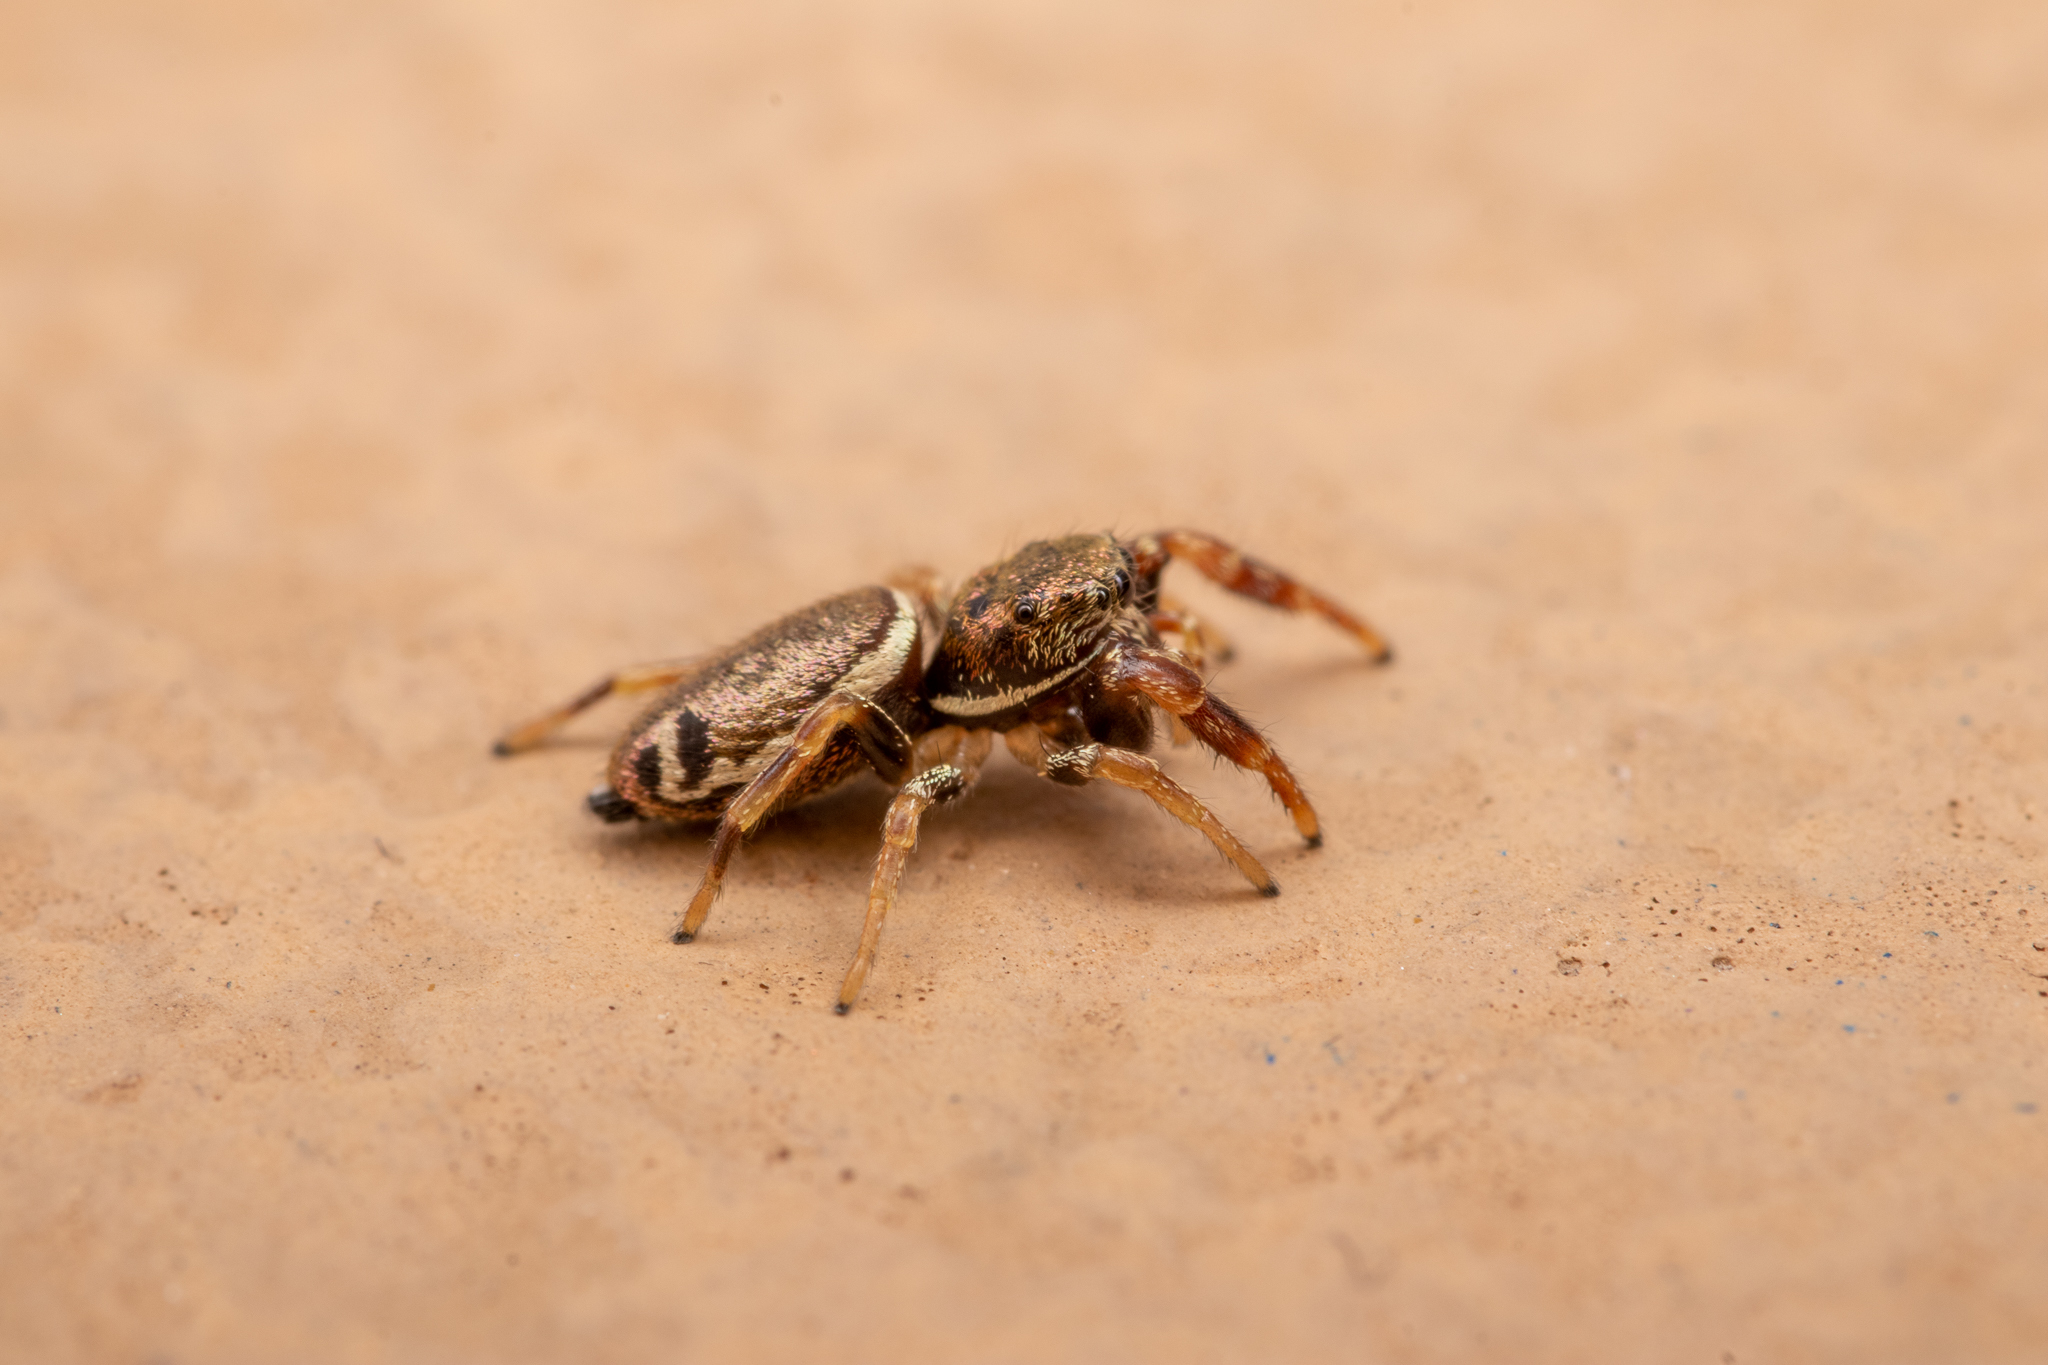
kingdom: Animalia
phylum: Arthropoda
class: Arachnida
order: Araneae
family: Salticidae
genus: Sassacus
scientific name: Sassacus vitis
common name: Jumping spiders
